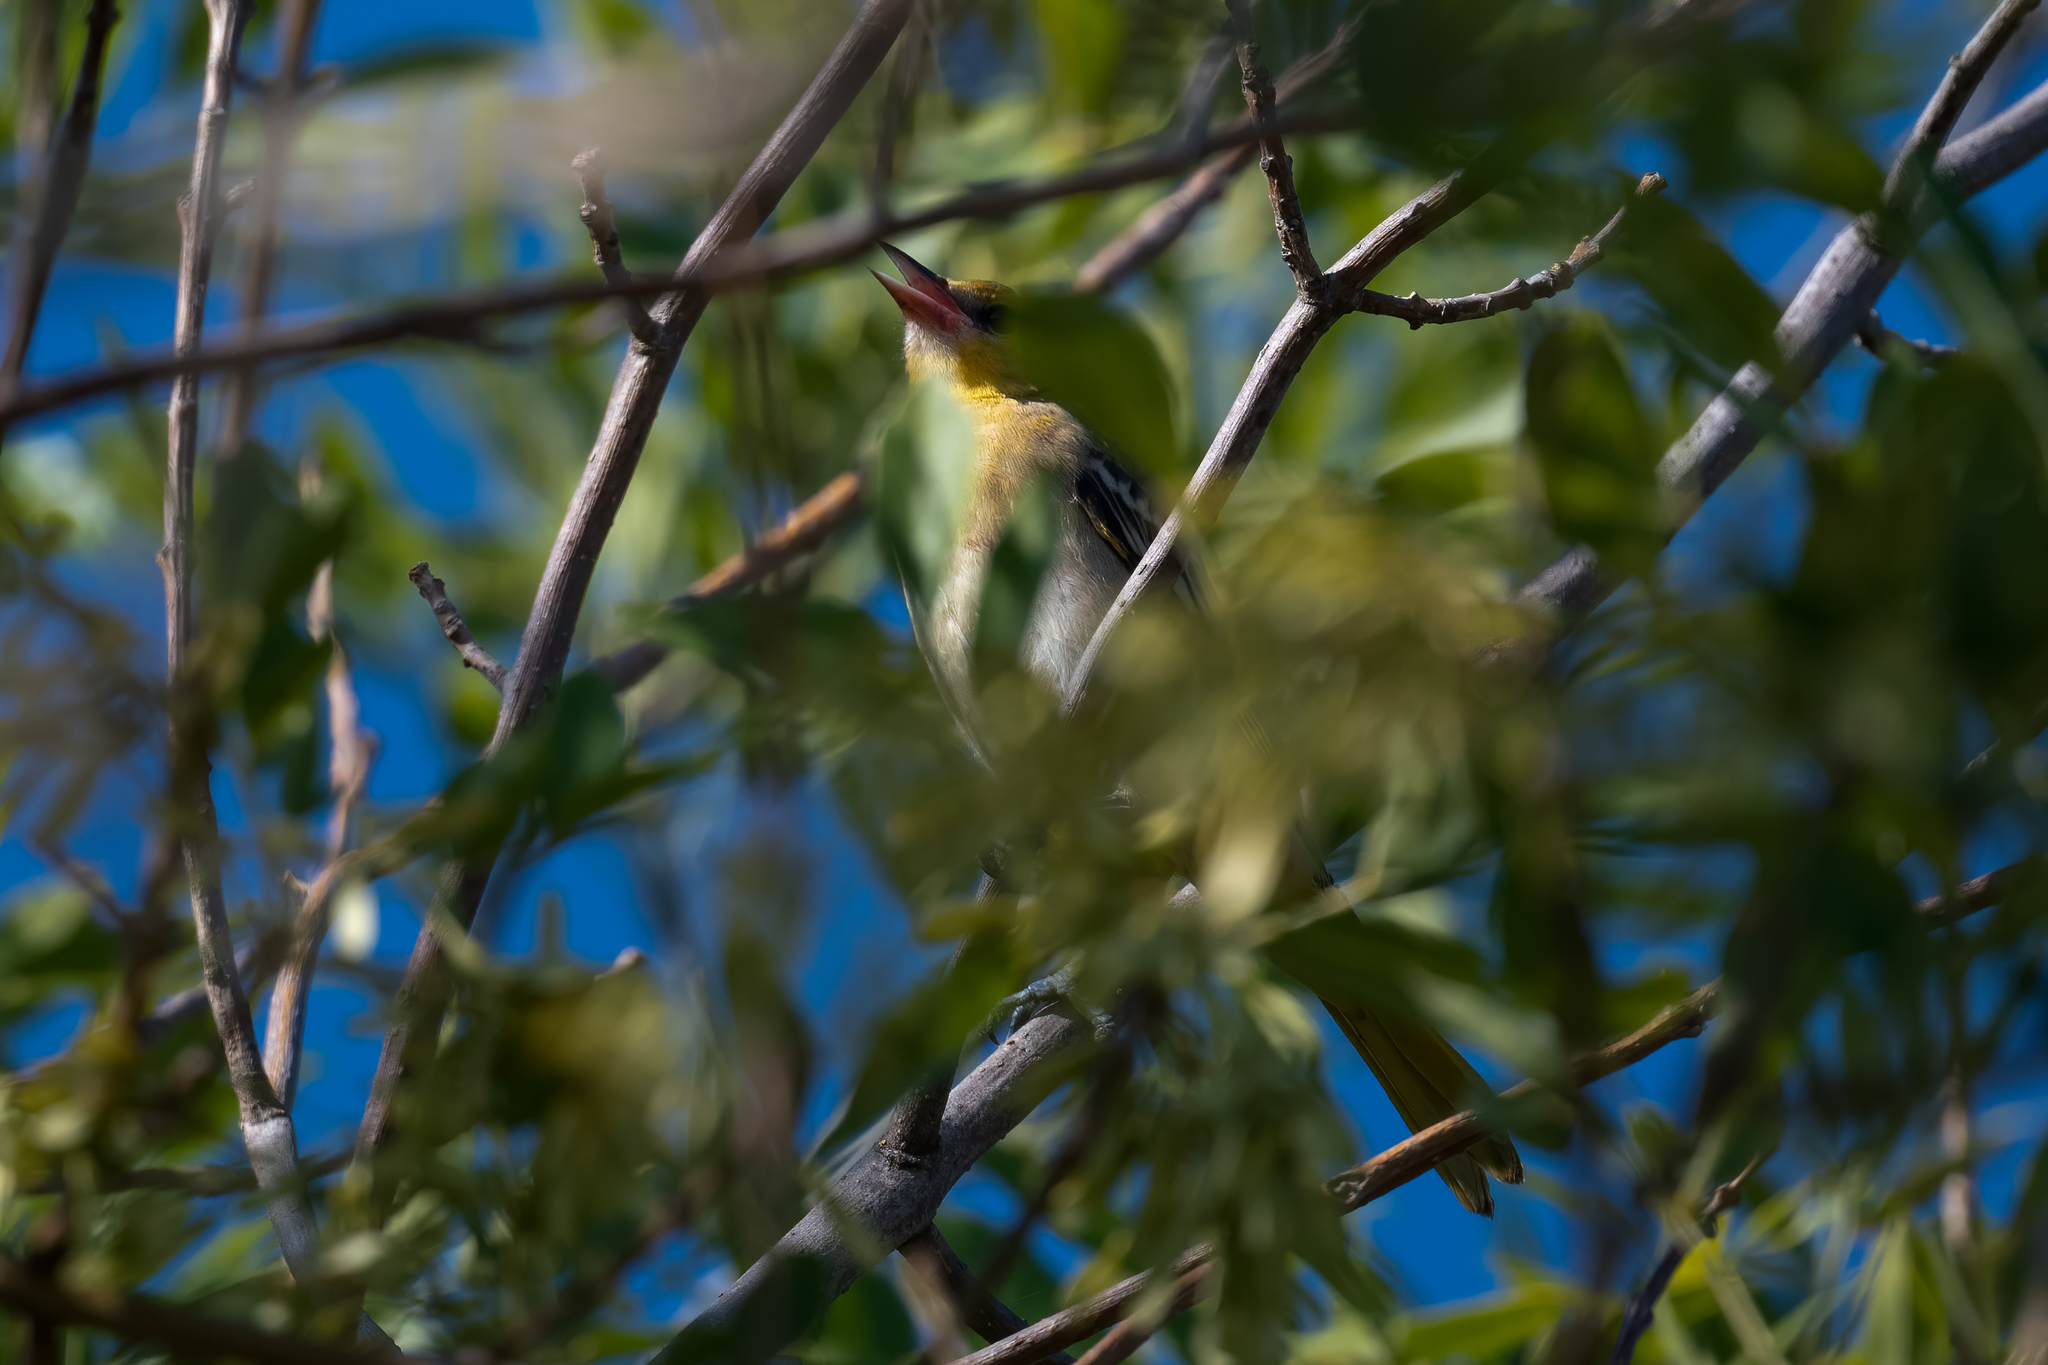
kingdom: Animalia
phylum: Chordata
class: Aves
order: Passeriformes
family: Icteridae
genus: Icterus
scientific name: Icterus bullockii
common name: Bullock's oriole
